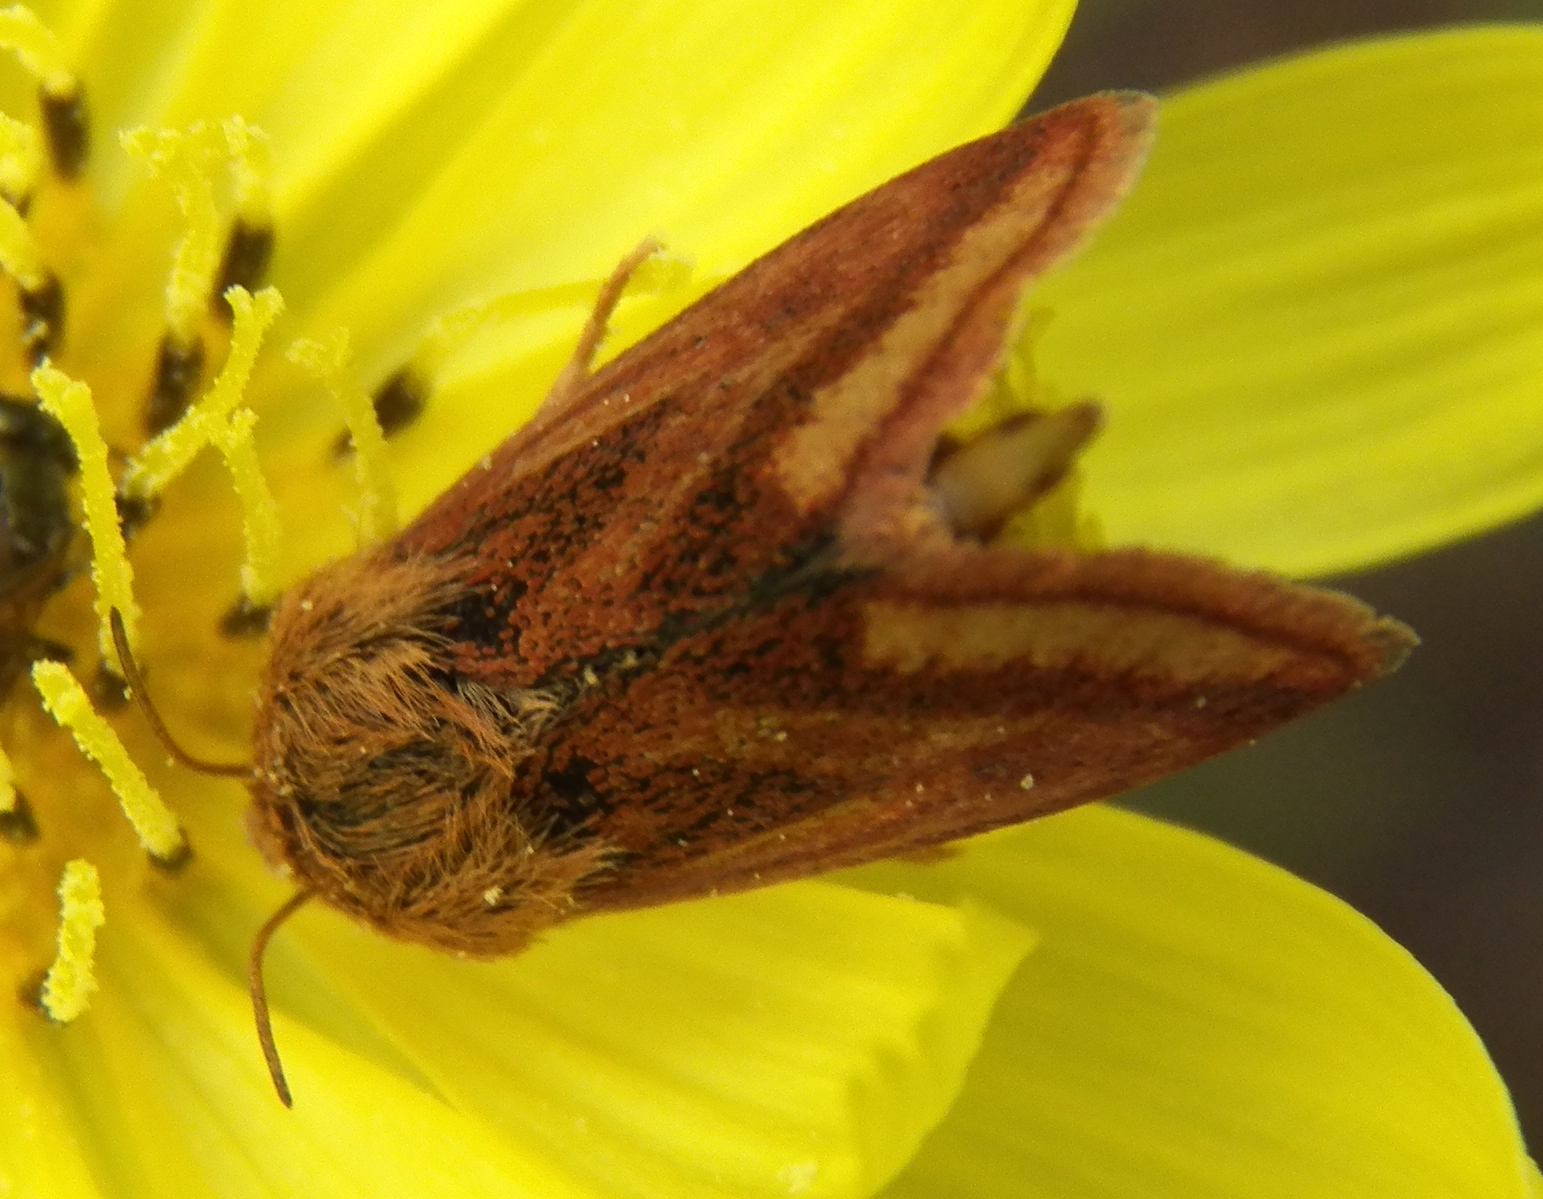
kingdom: Animalia
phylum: Arthropoda
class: Insecta
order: Lepidoptera
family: Noctuidae
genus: Schinia
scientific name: Schinia mitis
